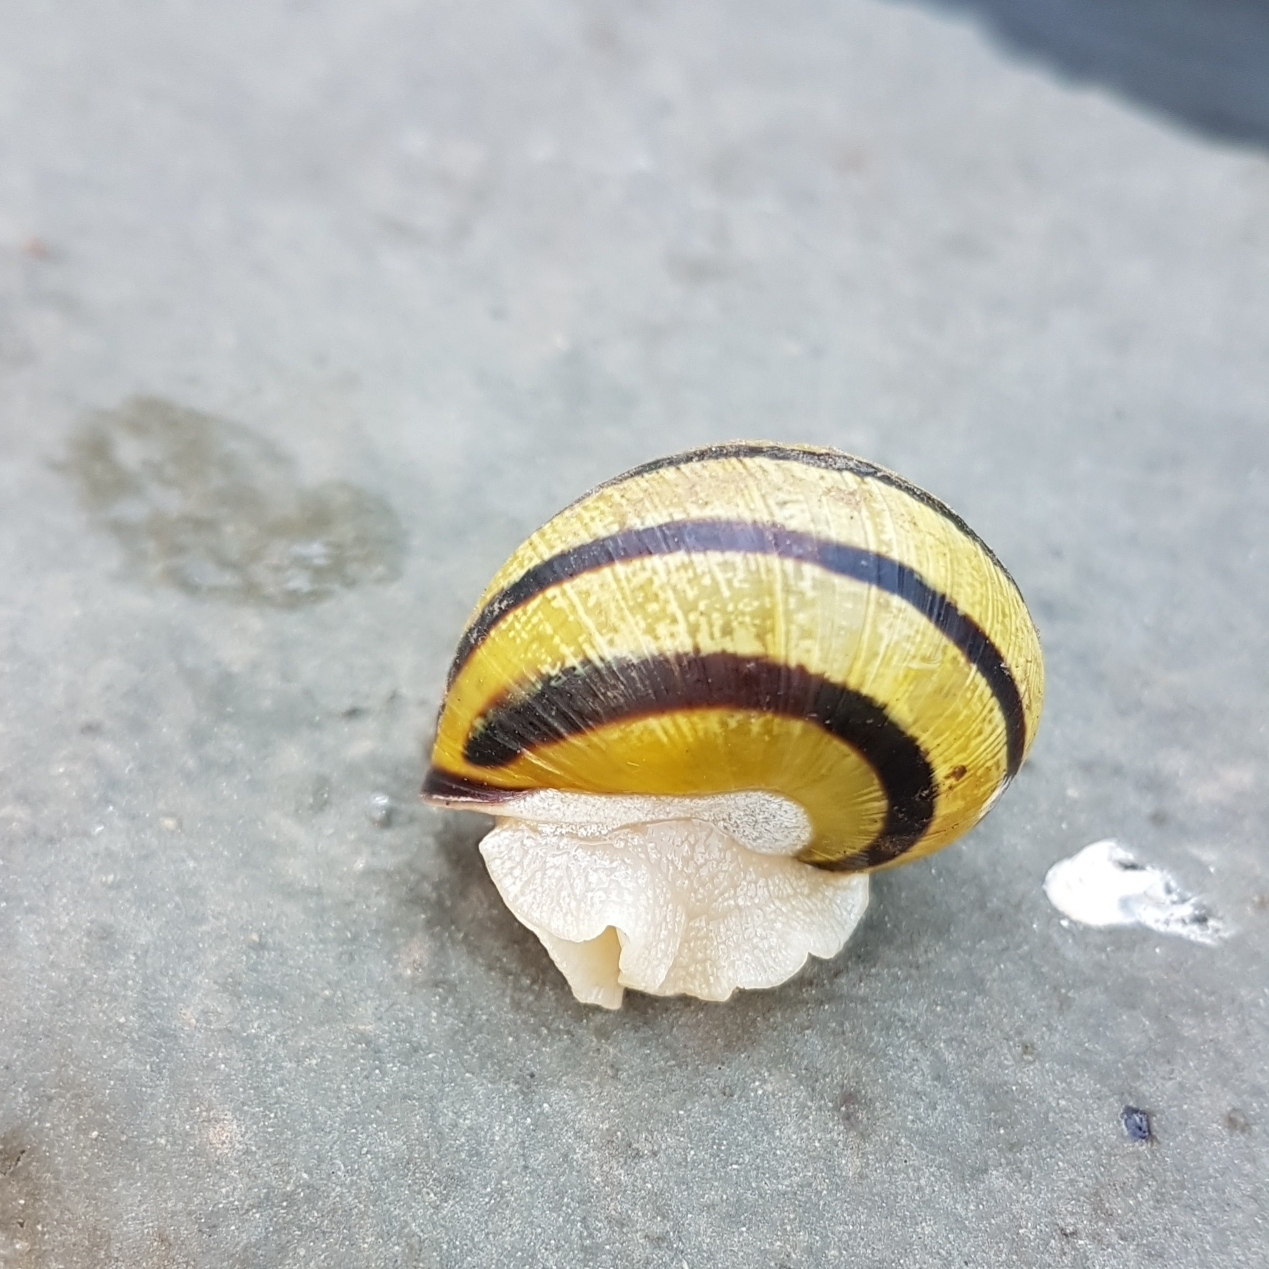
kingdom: Animalia
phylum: Mollusca
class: Gastropoda
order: Stylommatophora
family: Helicidae
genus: Cepaea
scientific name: Cepaea nemoralis
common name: Grovesnail
